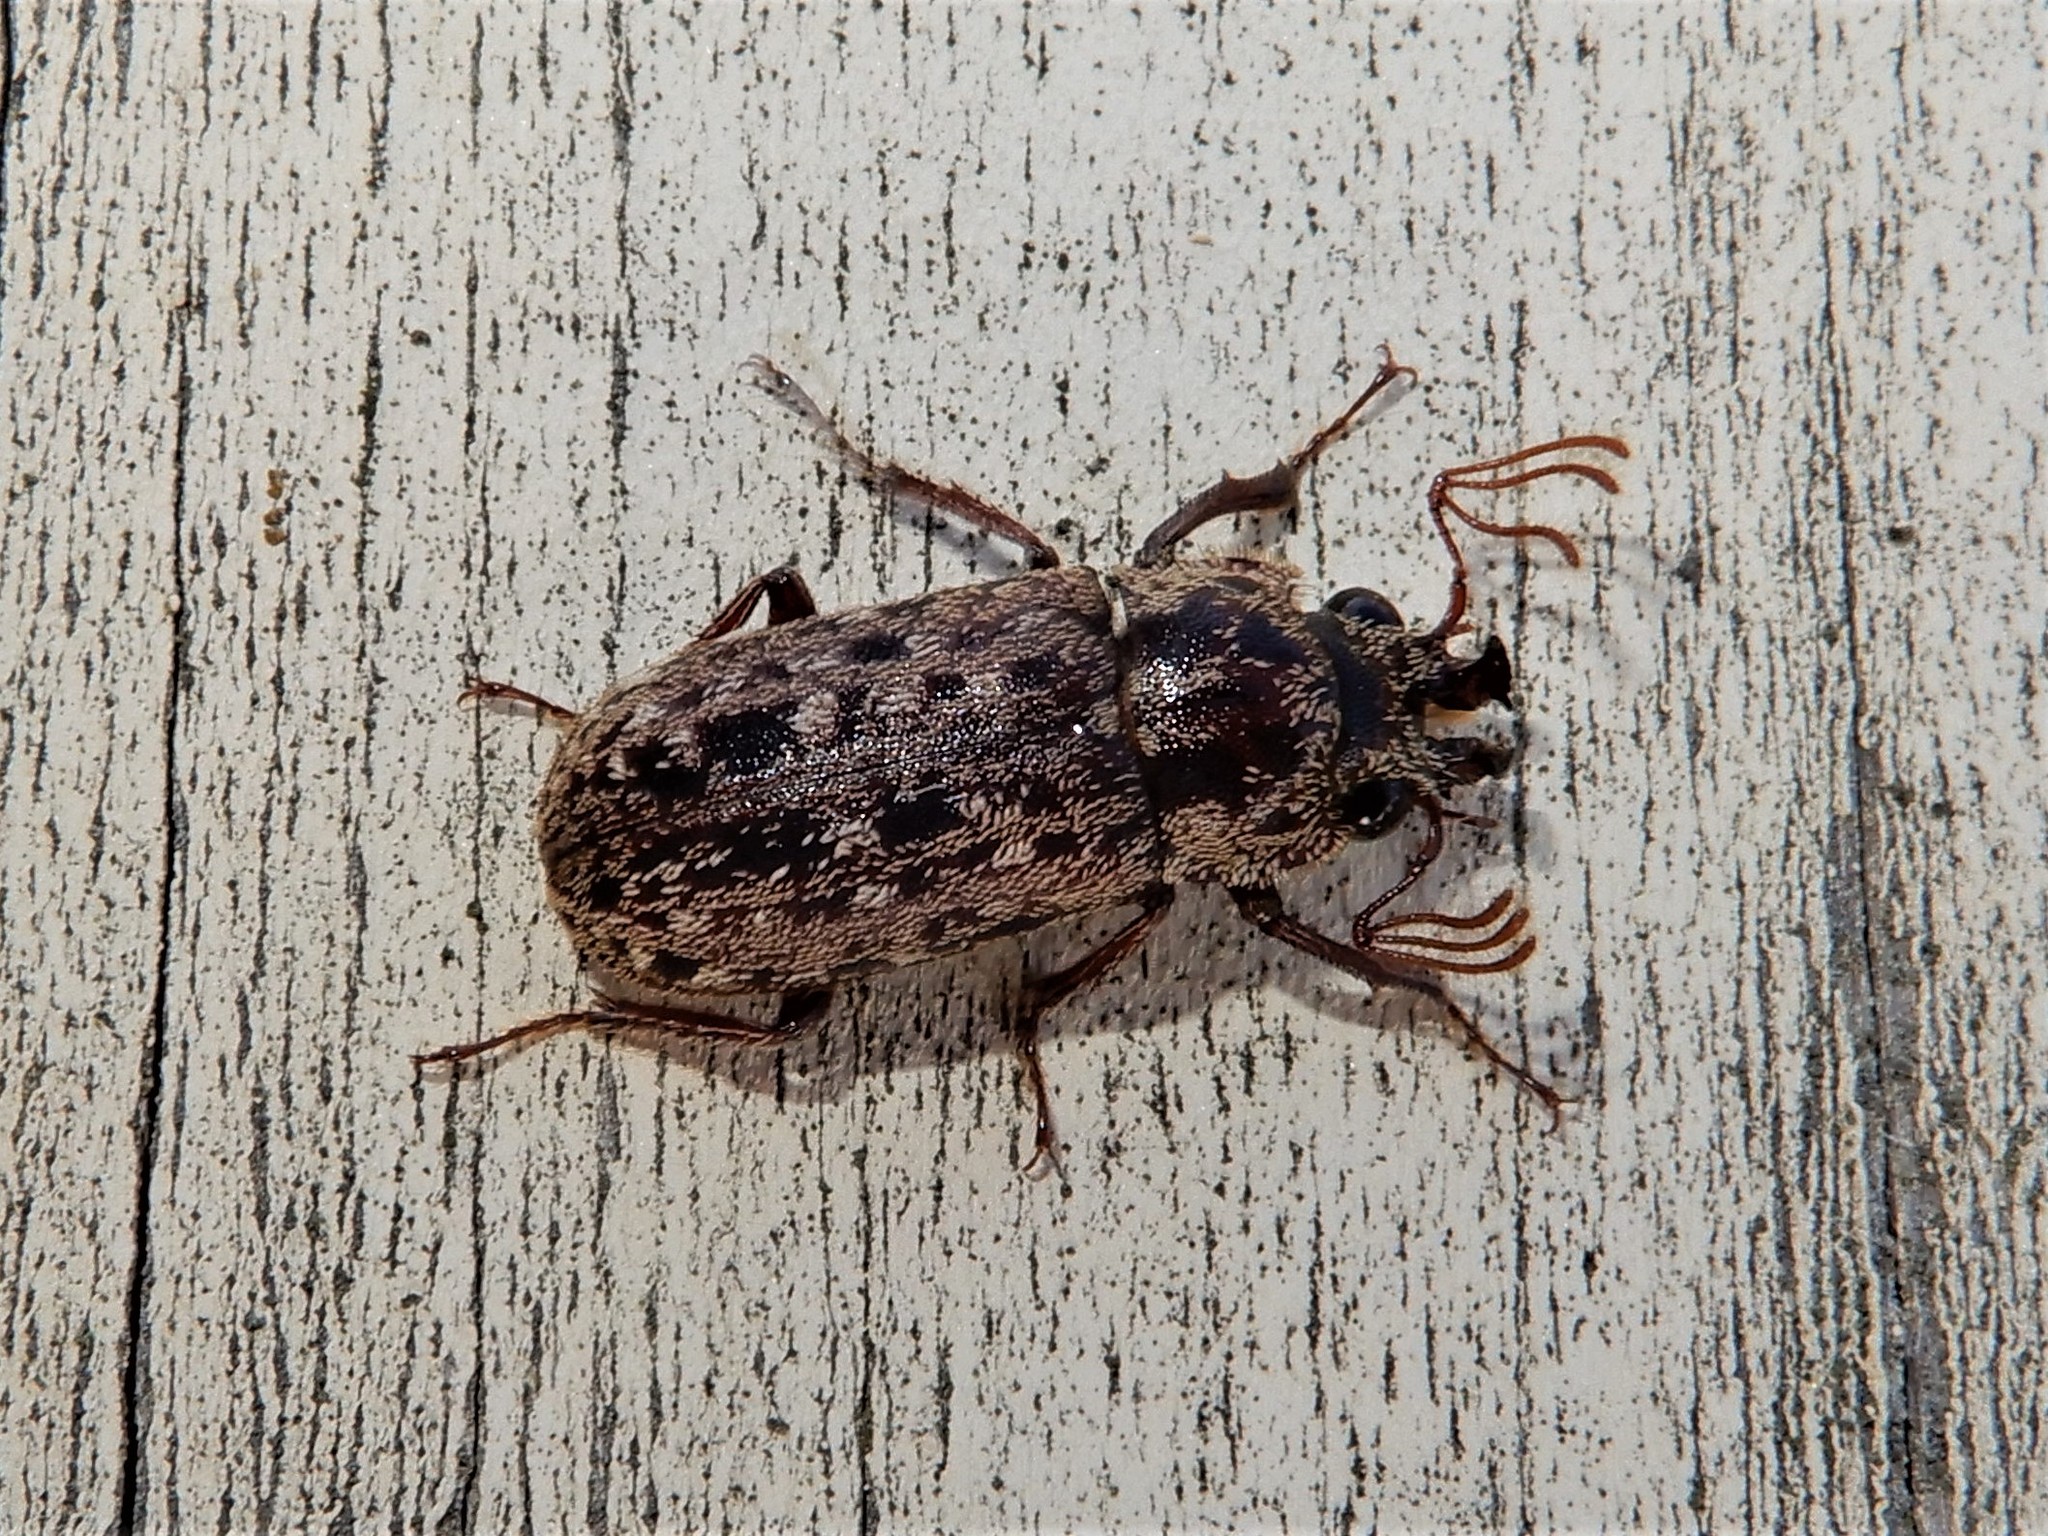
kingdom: Animalia
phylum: Arthropoda
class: Insecta
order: Coleoptera
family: Lucanidae
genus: Mitophyllus
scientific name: Mitophyllus irroratus
